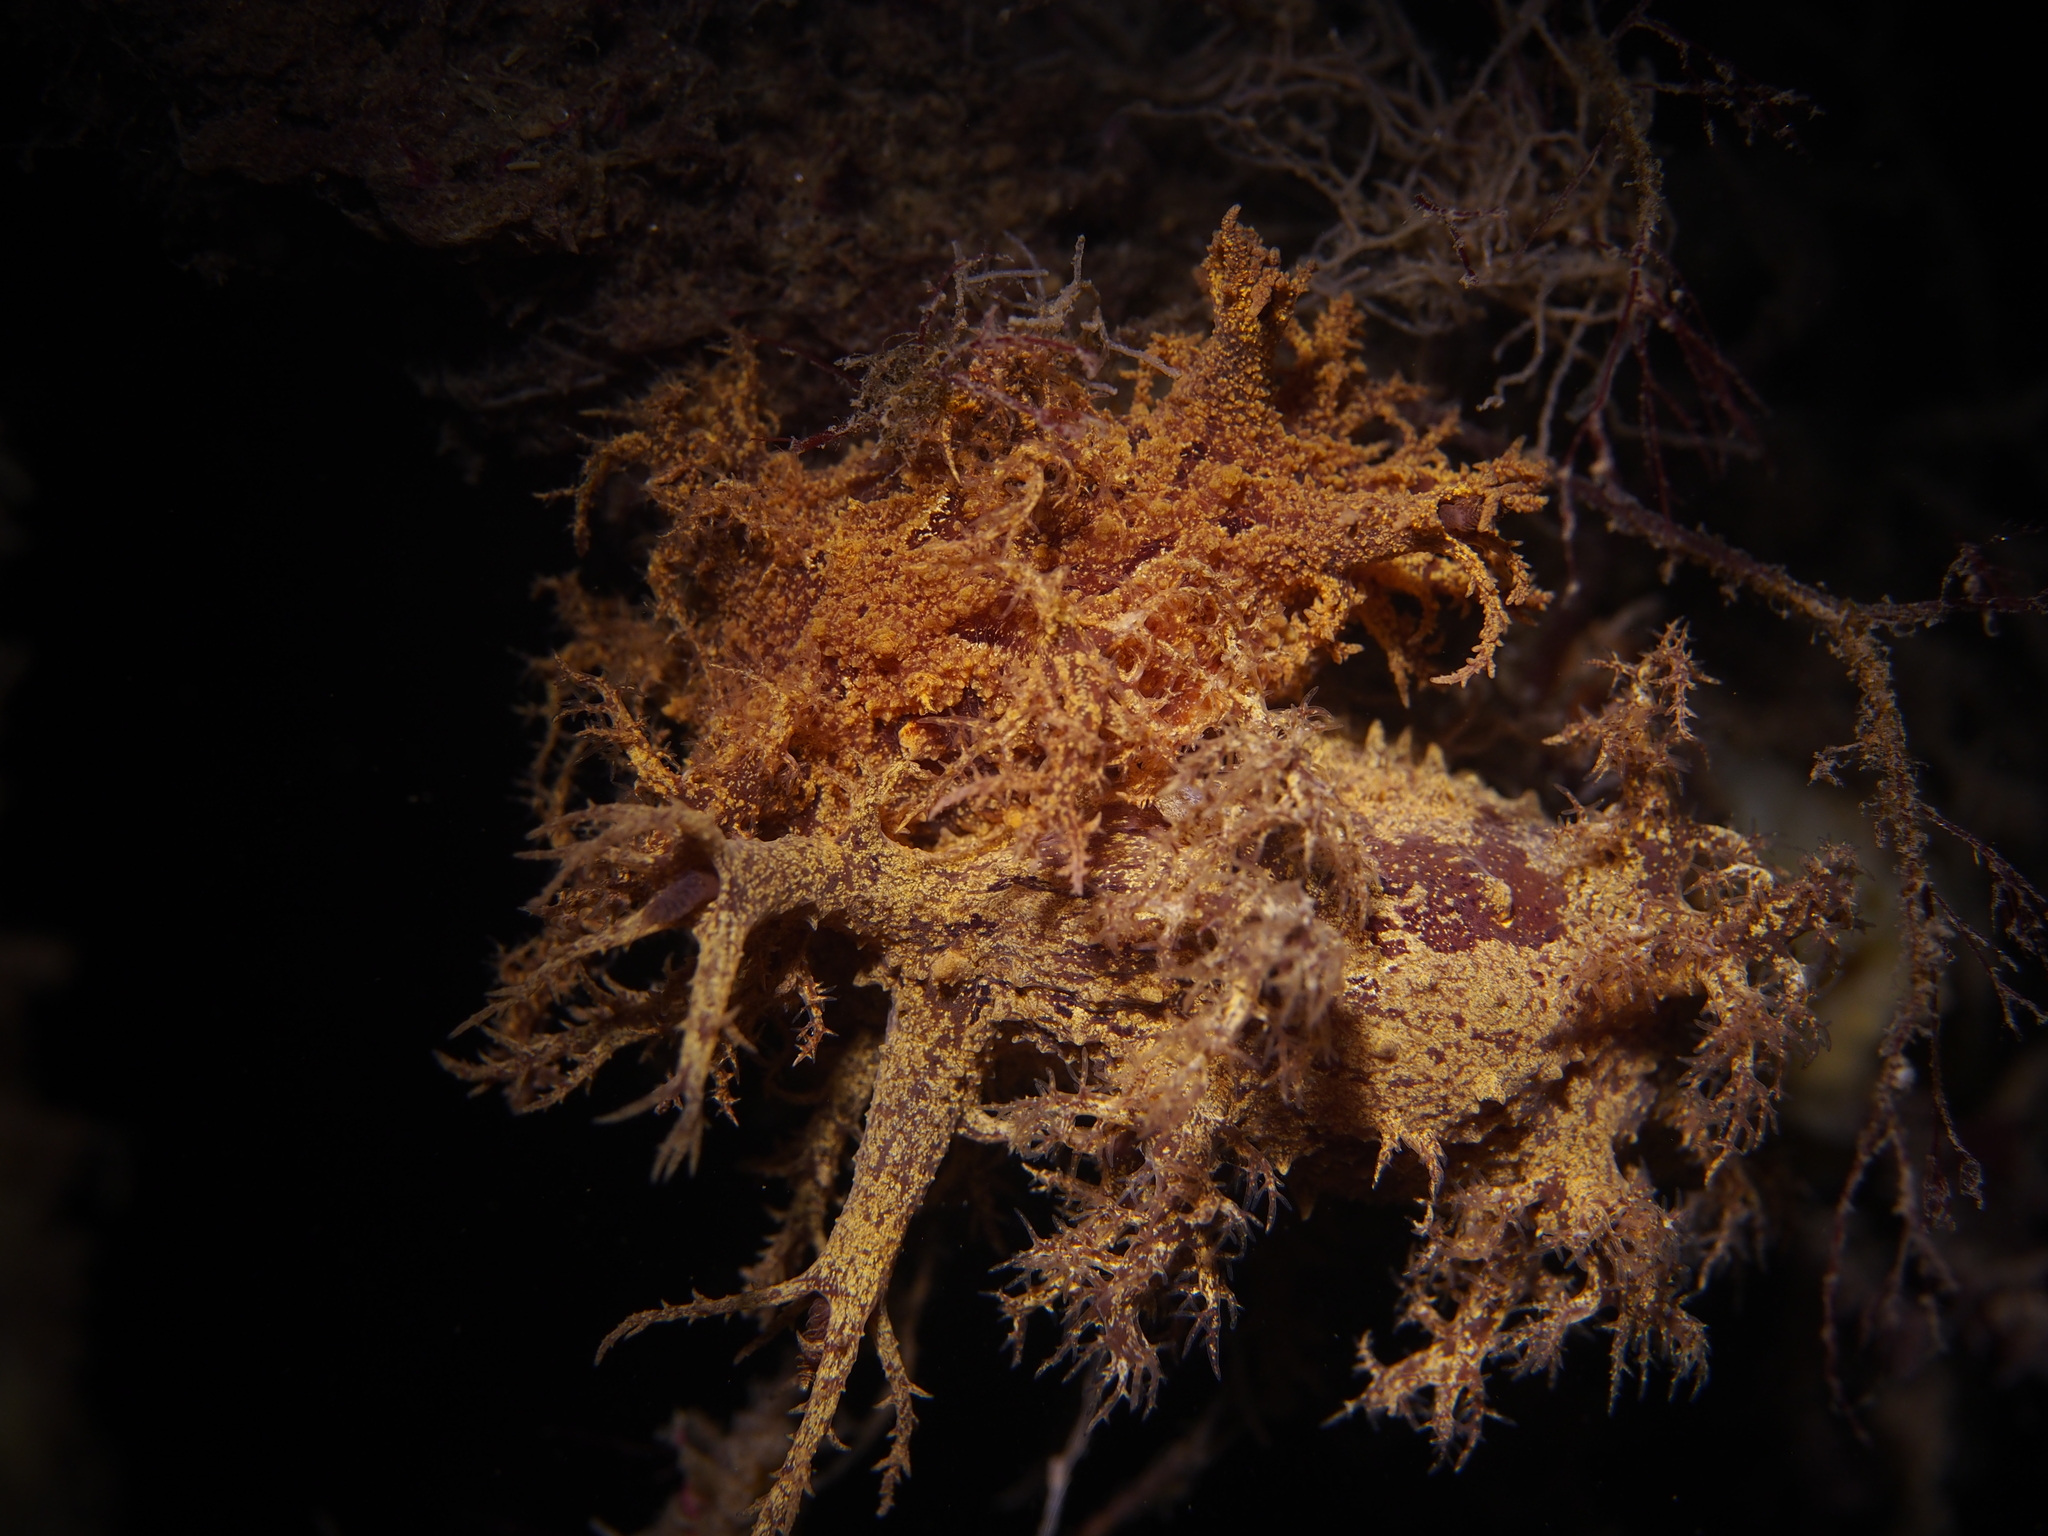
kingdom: Animalia
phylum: Mollusca
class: Gastropoda
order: Nudibranchia
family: Dendronotidae
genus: Dendronotus
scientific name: Dendronotus europaeus
